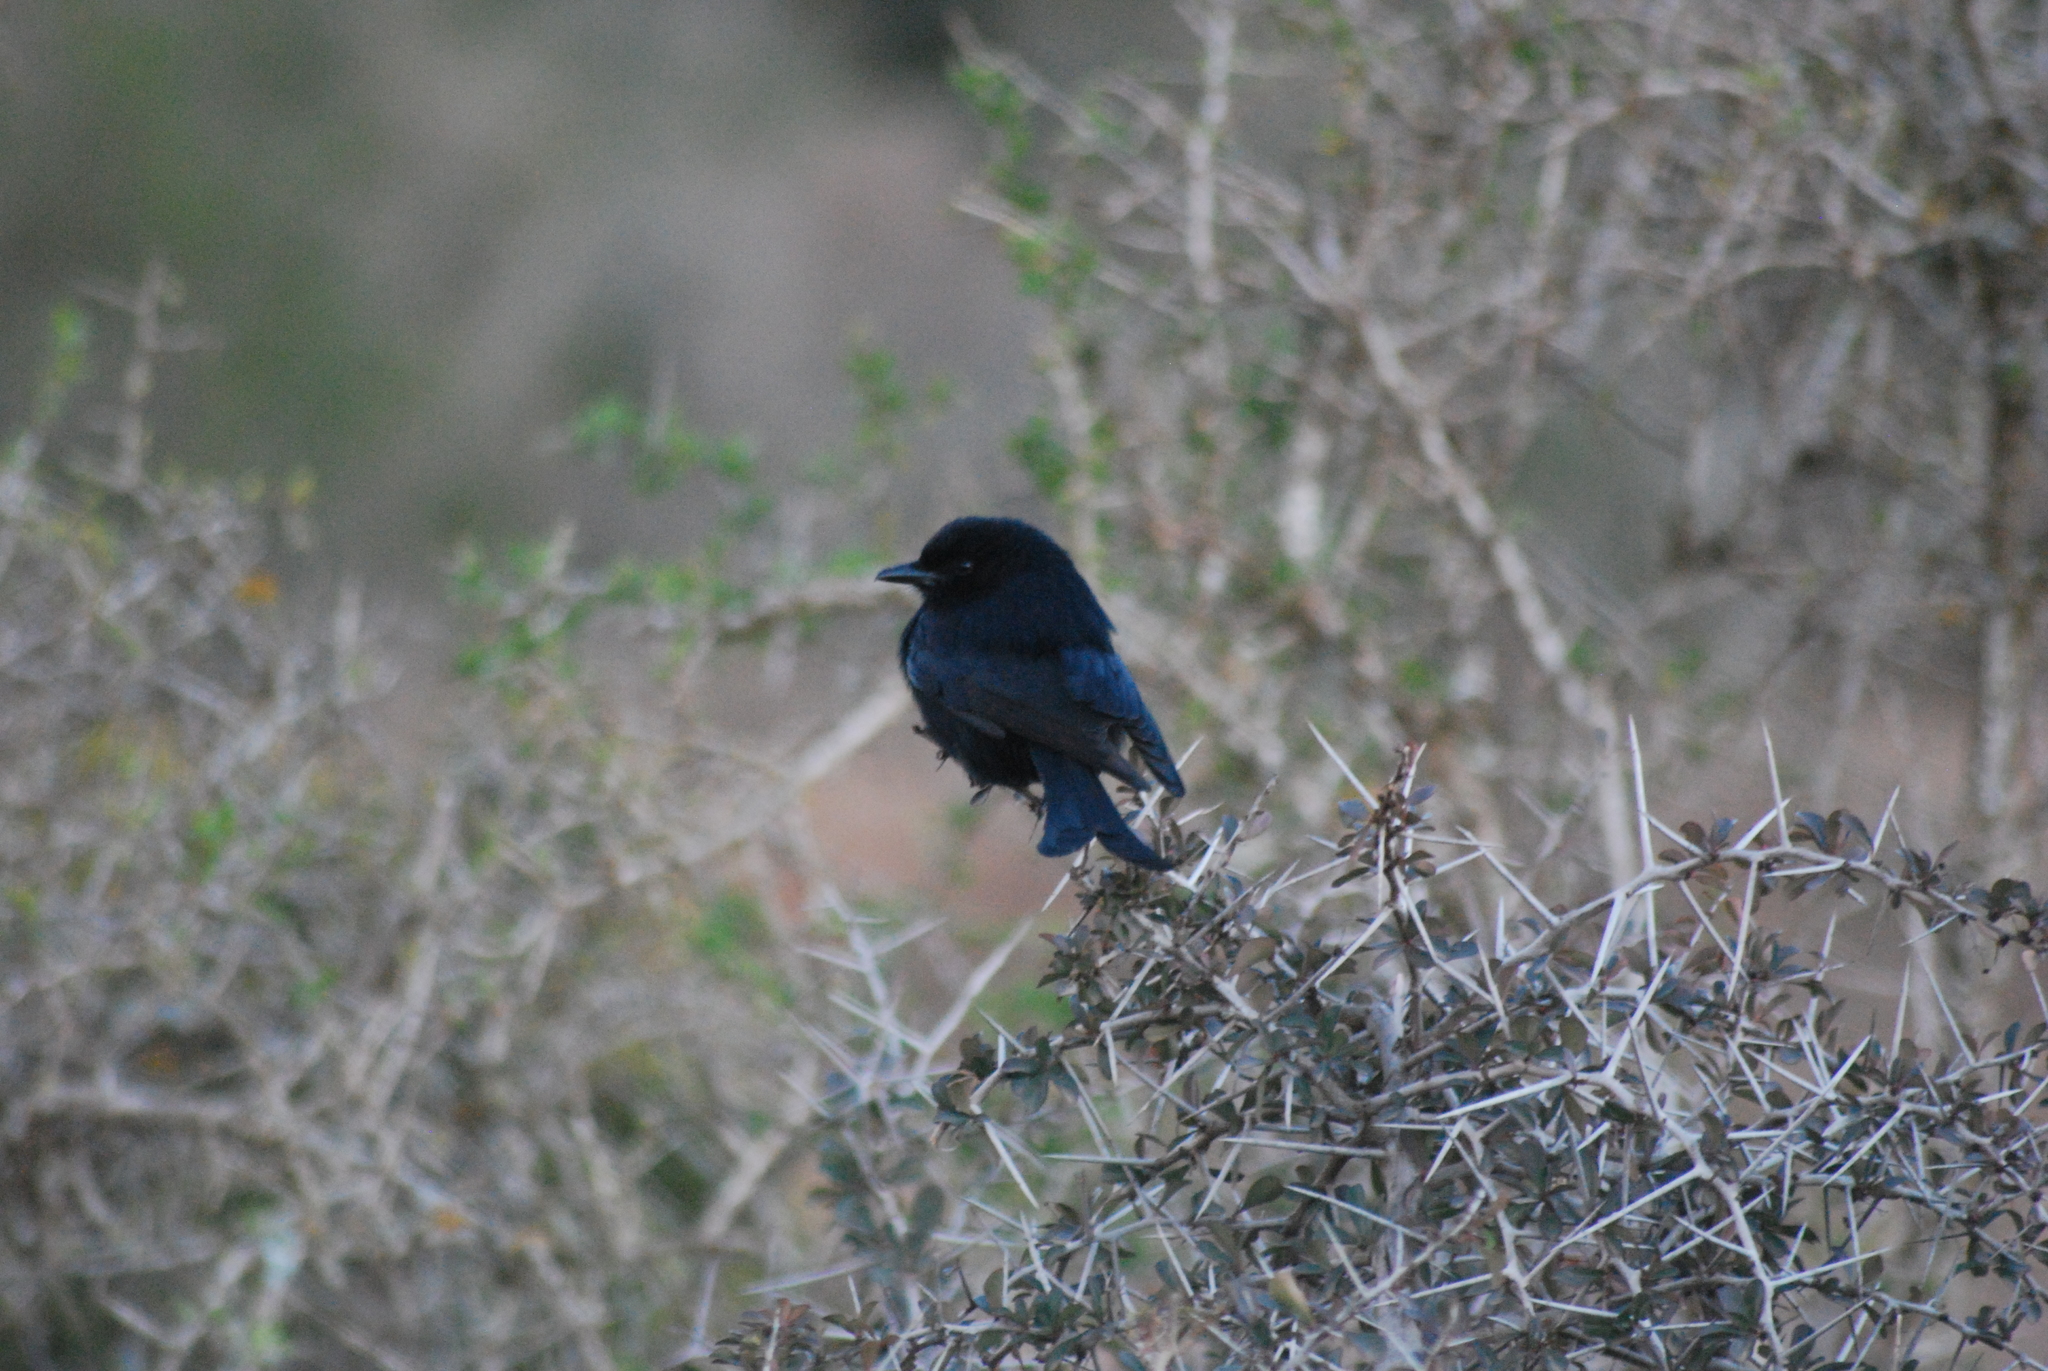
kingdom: Animalia
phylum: Chordata
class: Aves
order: Passeriformes
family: Dicruridae
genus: Dicrurus
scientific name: Dicrurus adsimilis
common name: Fork-tailed drongo
